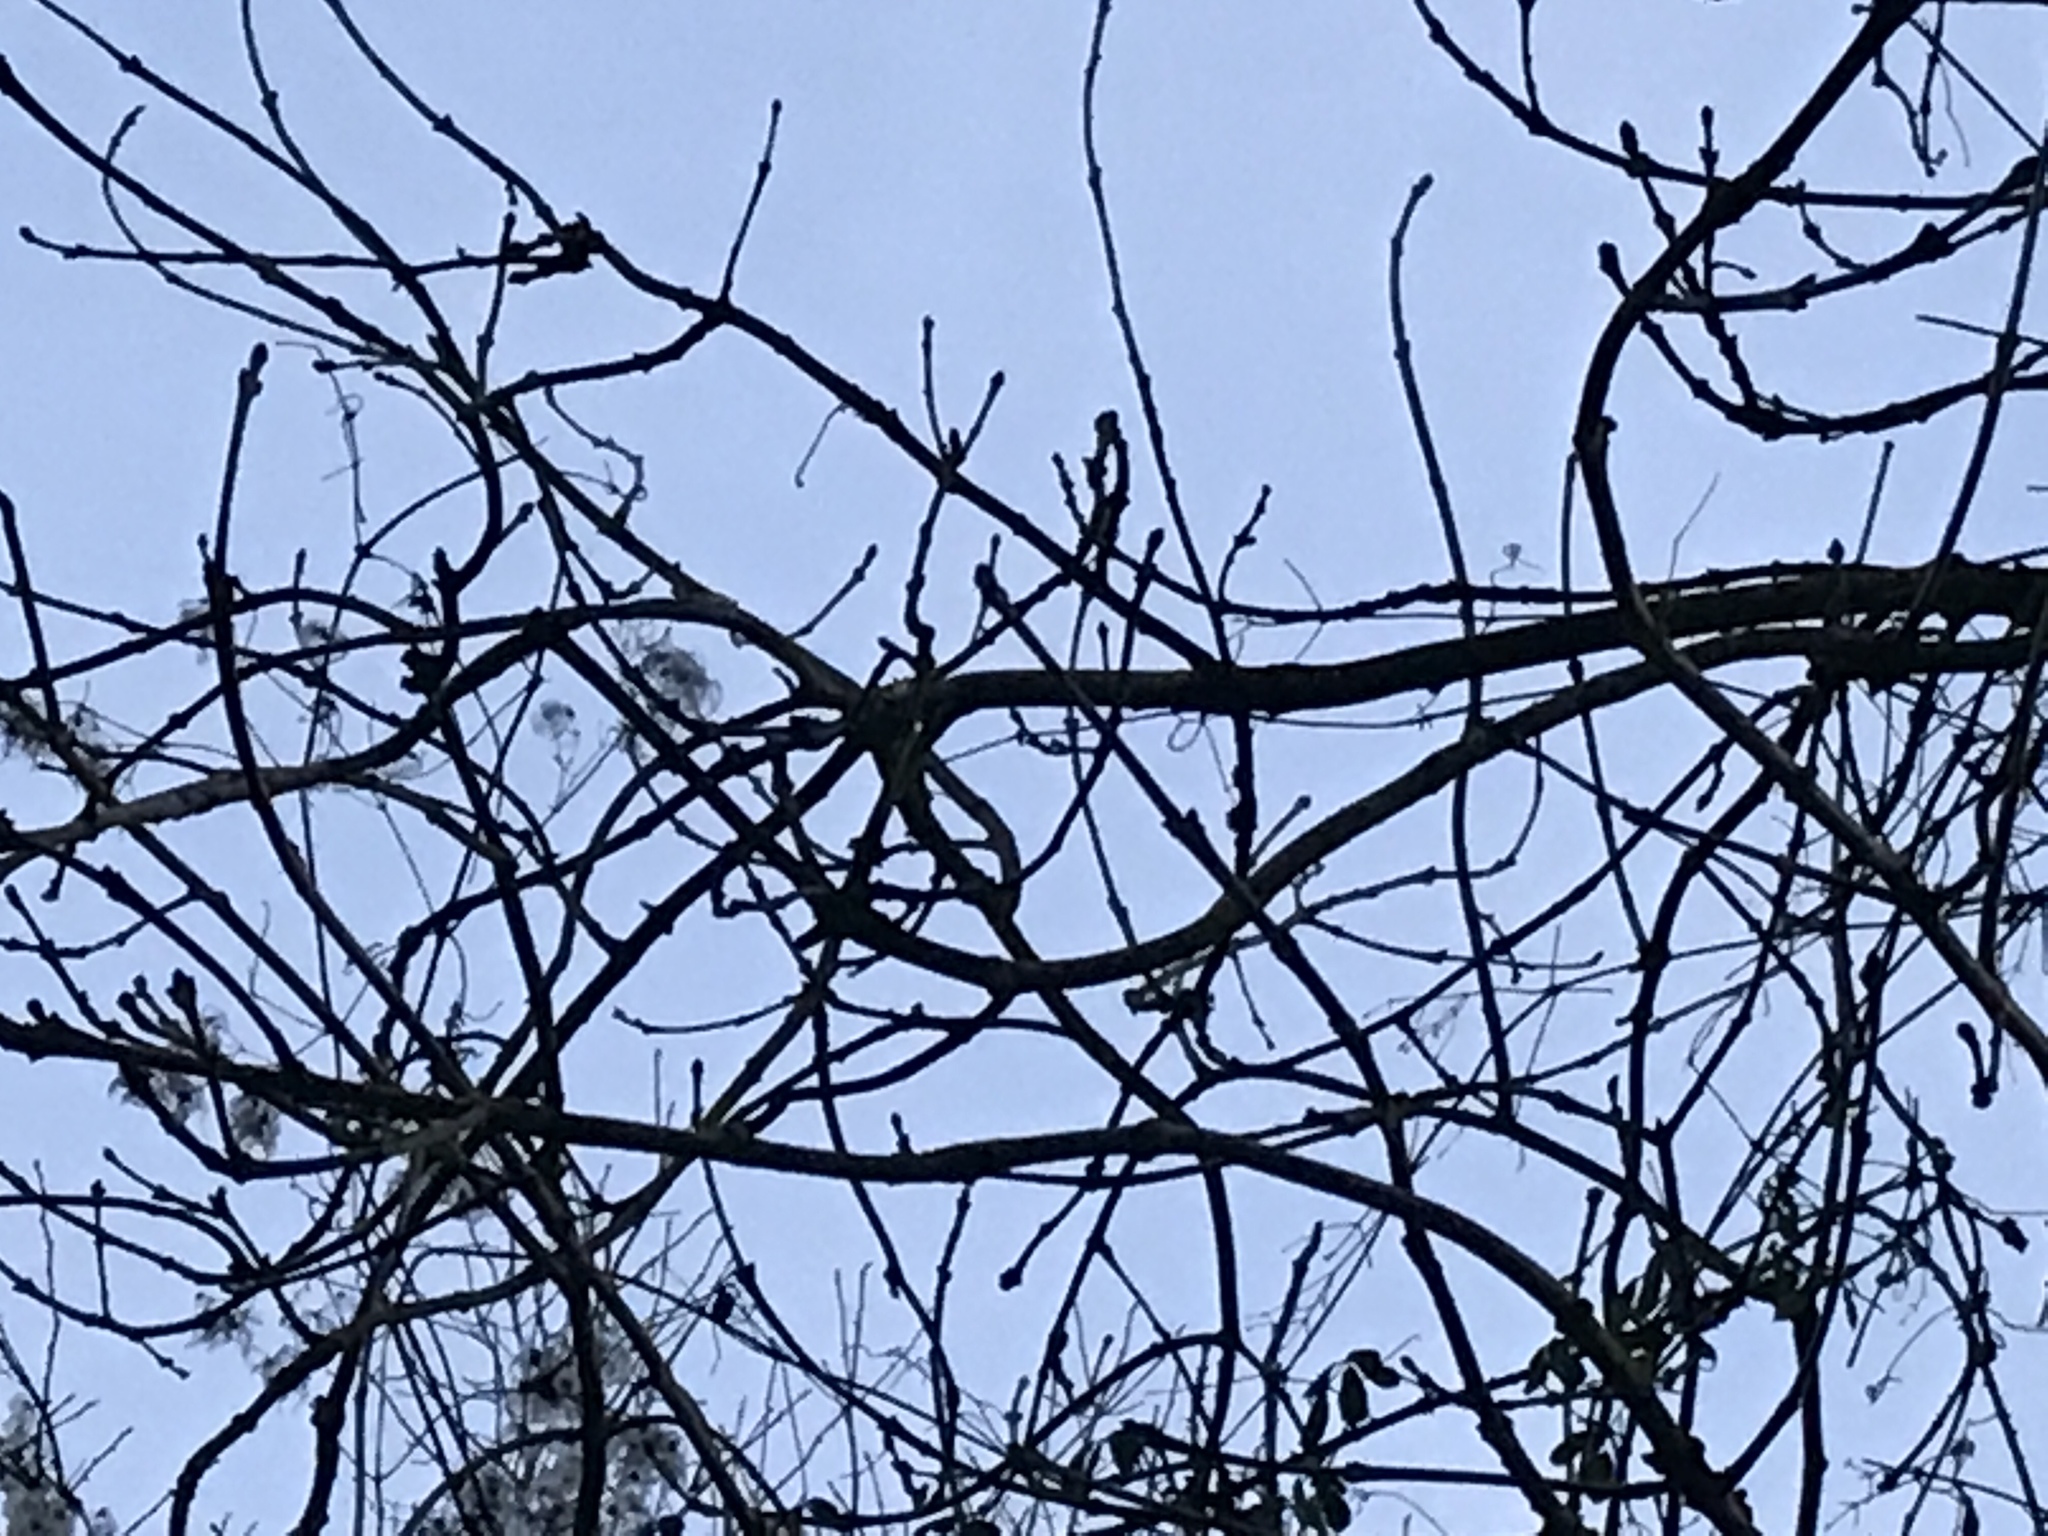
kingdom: Plantae
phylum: Tracheophyta
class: Magnoliopsida
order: Ranunculales
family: Ranunculaceae
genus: Clematis
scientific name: Clematis vitalba
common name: Evergreen clematis
